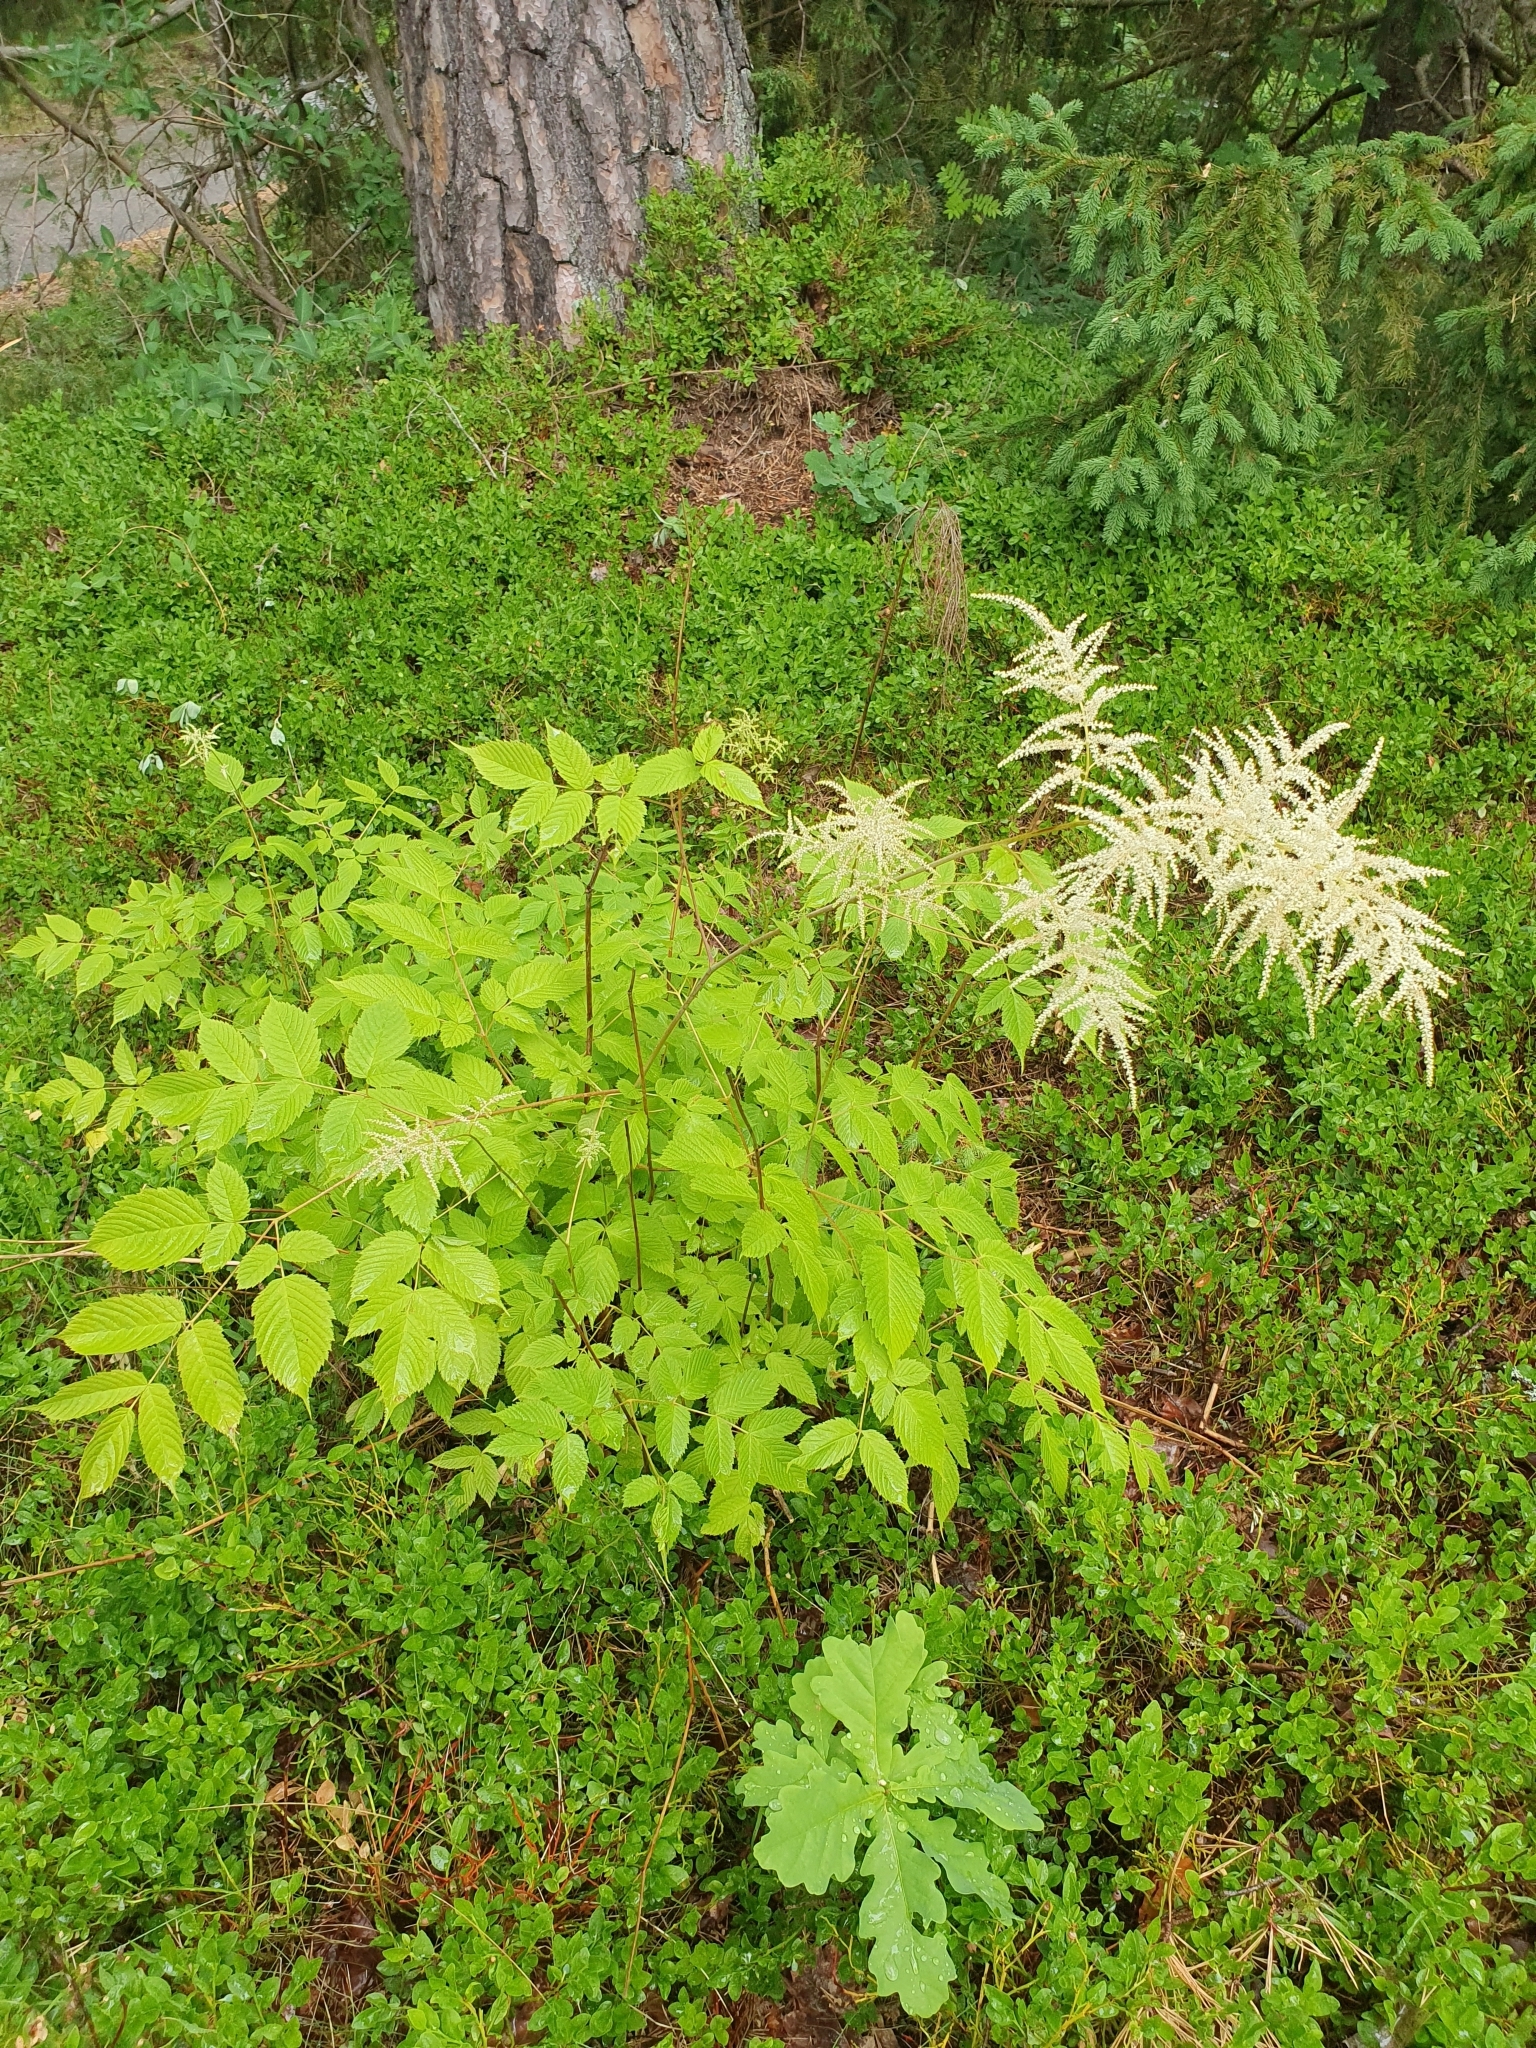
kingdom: Plantae
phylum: Tracheophyta
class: Magnoliopsida
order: Rosales
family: Rosaceae
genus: Aruncus
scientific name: Aruncus dioicus
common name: Buck's-beard
